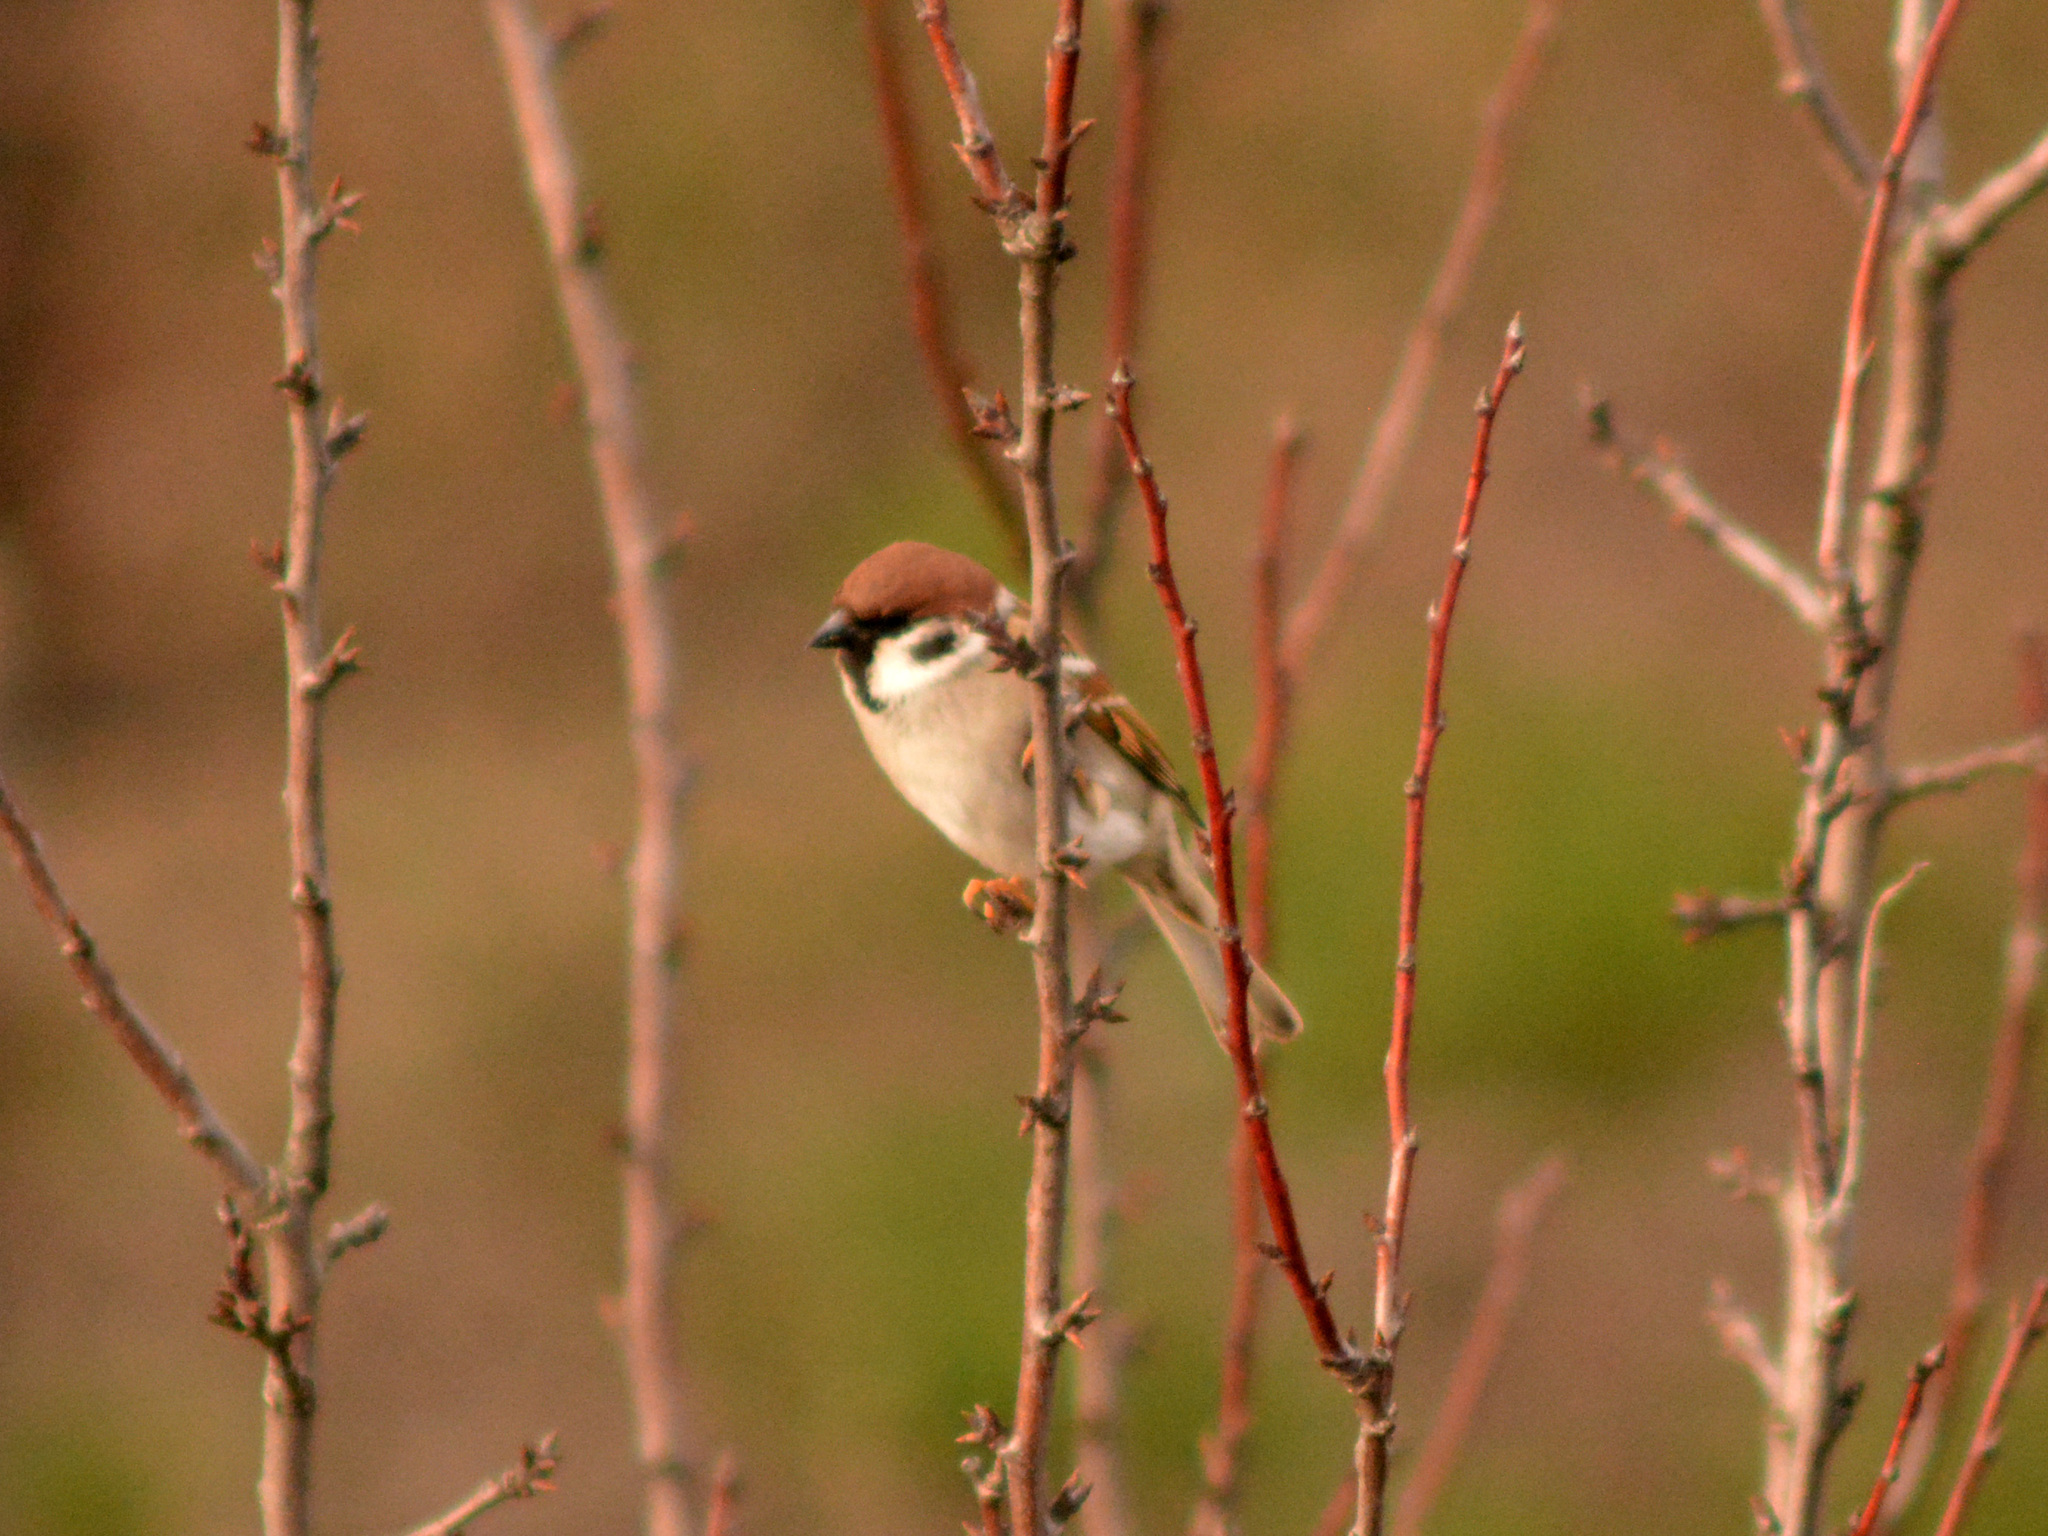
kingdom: Animalia
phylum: Chordata
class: Aves
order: Passeriformes
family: Passeridae
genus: Passer
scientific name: Passer montanus
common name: Eurasian tree sparrow
